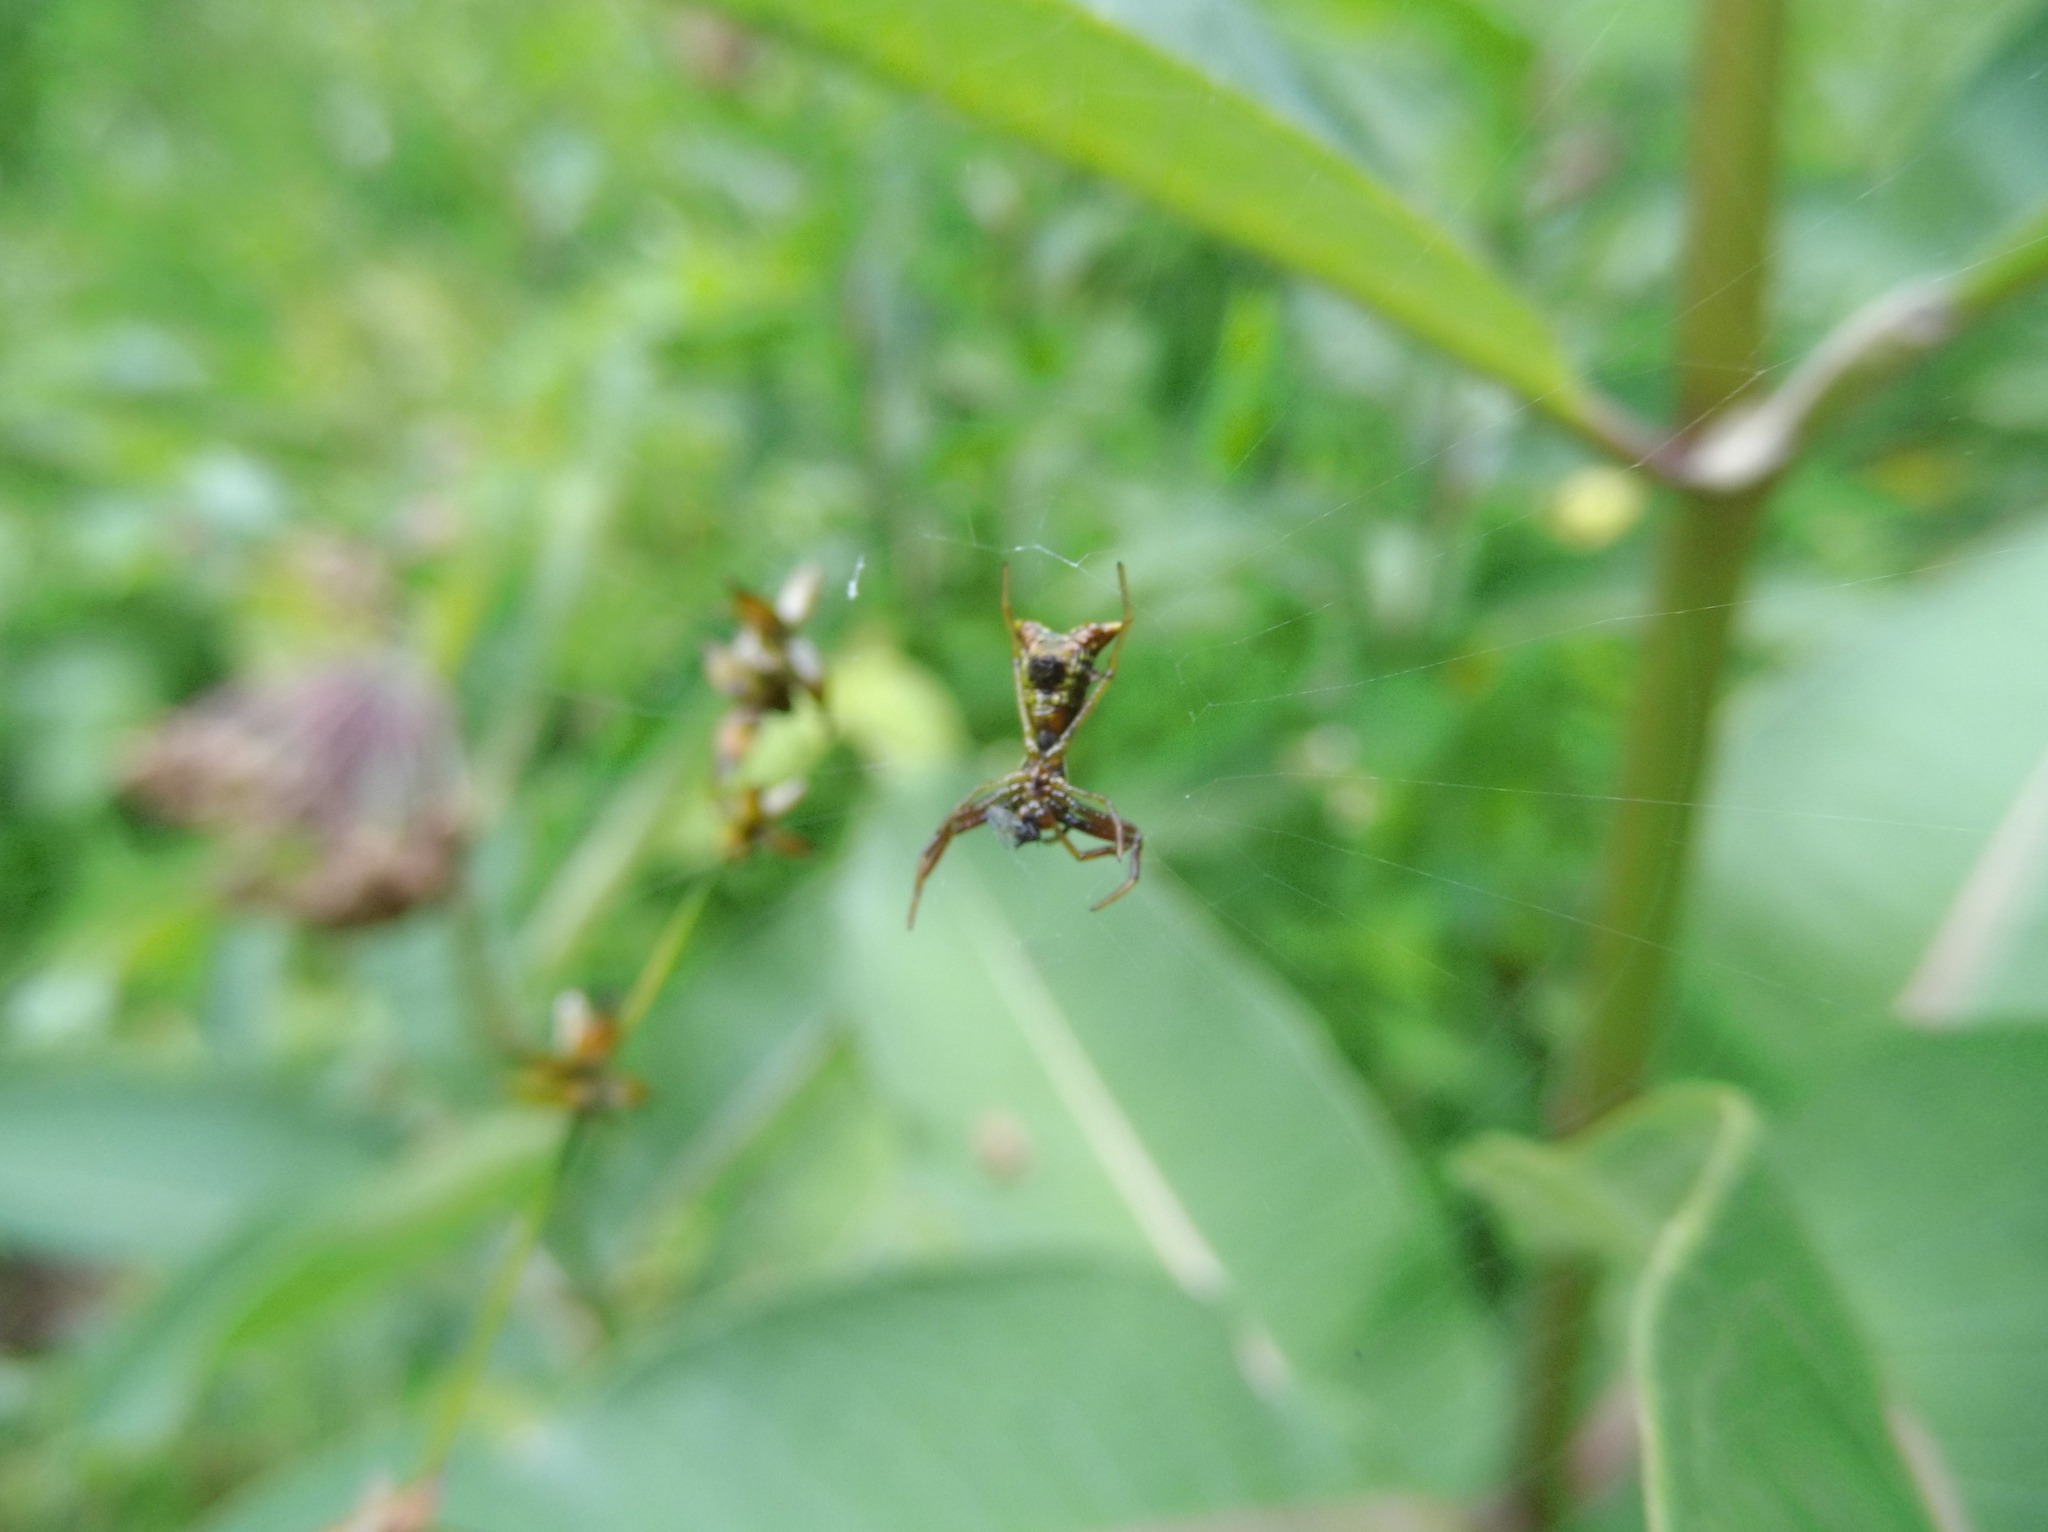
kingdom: Animalia
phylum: Arthropoda
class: Arachnida
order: Araneae
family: Araneidae
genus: Micrathena
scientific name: Micrathena sagittata
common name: Orb weavers
